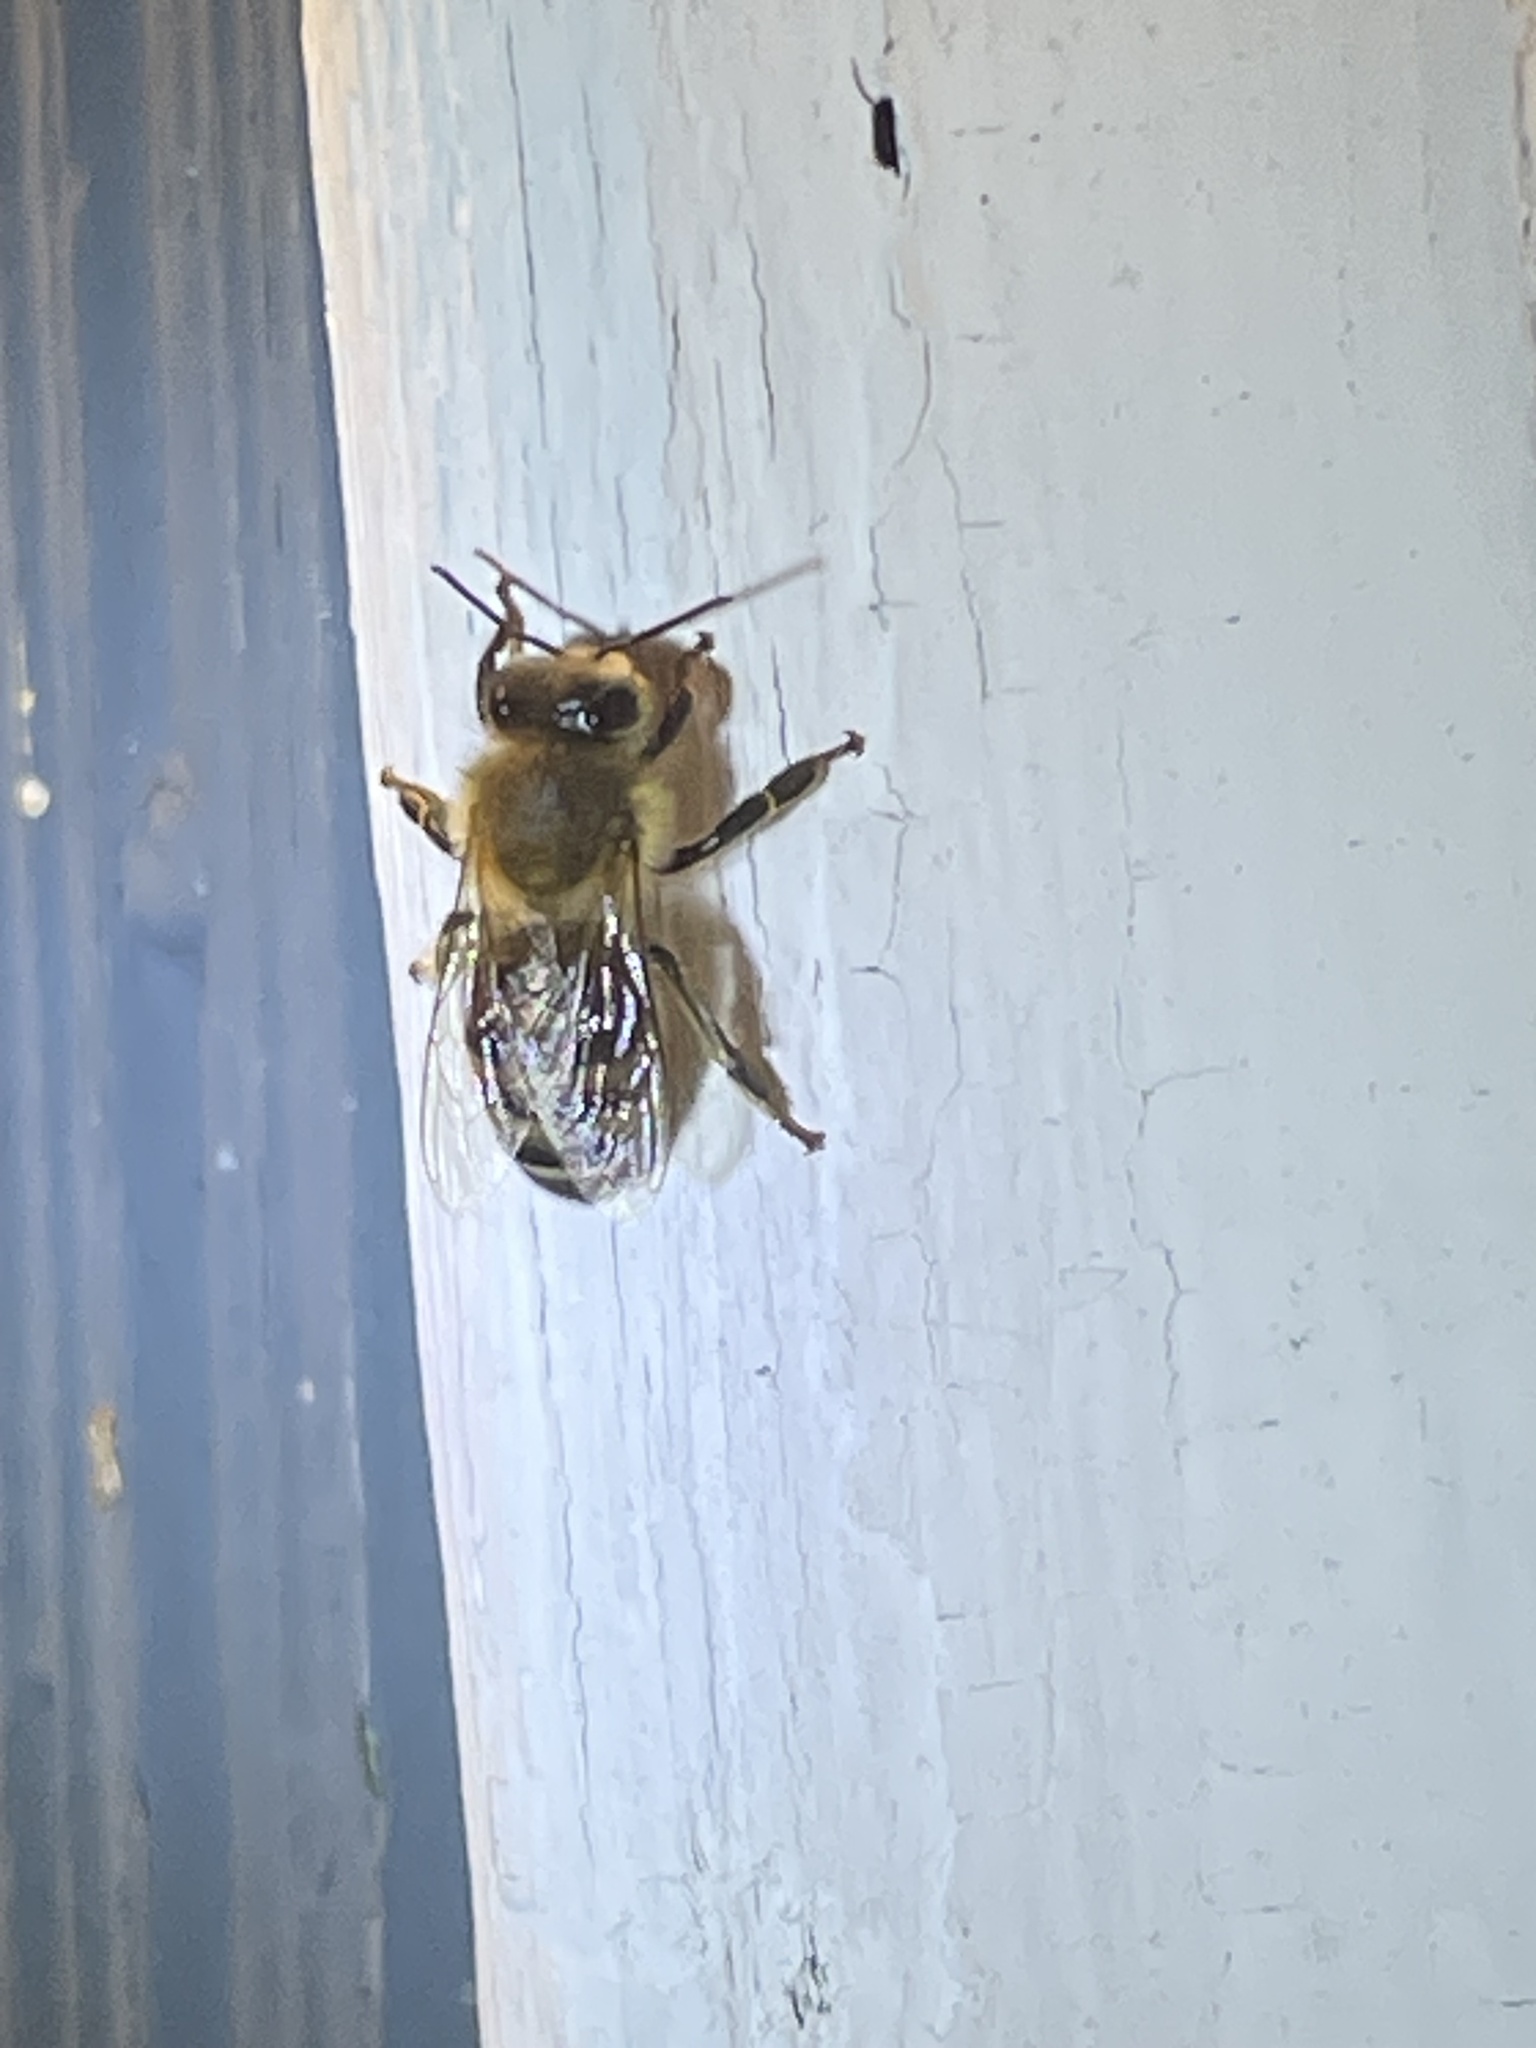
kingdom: Animalia
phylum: Arthropoda
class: Insecta
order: Hymenoptera
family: Apidae
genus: Apis
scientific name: Apis mellifera
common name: Honey bee
